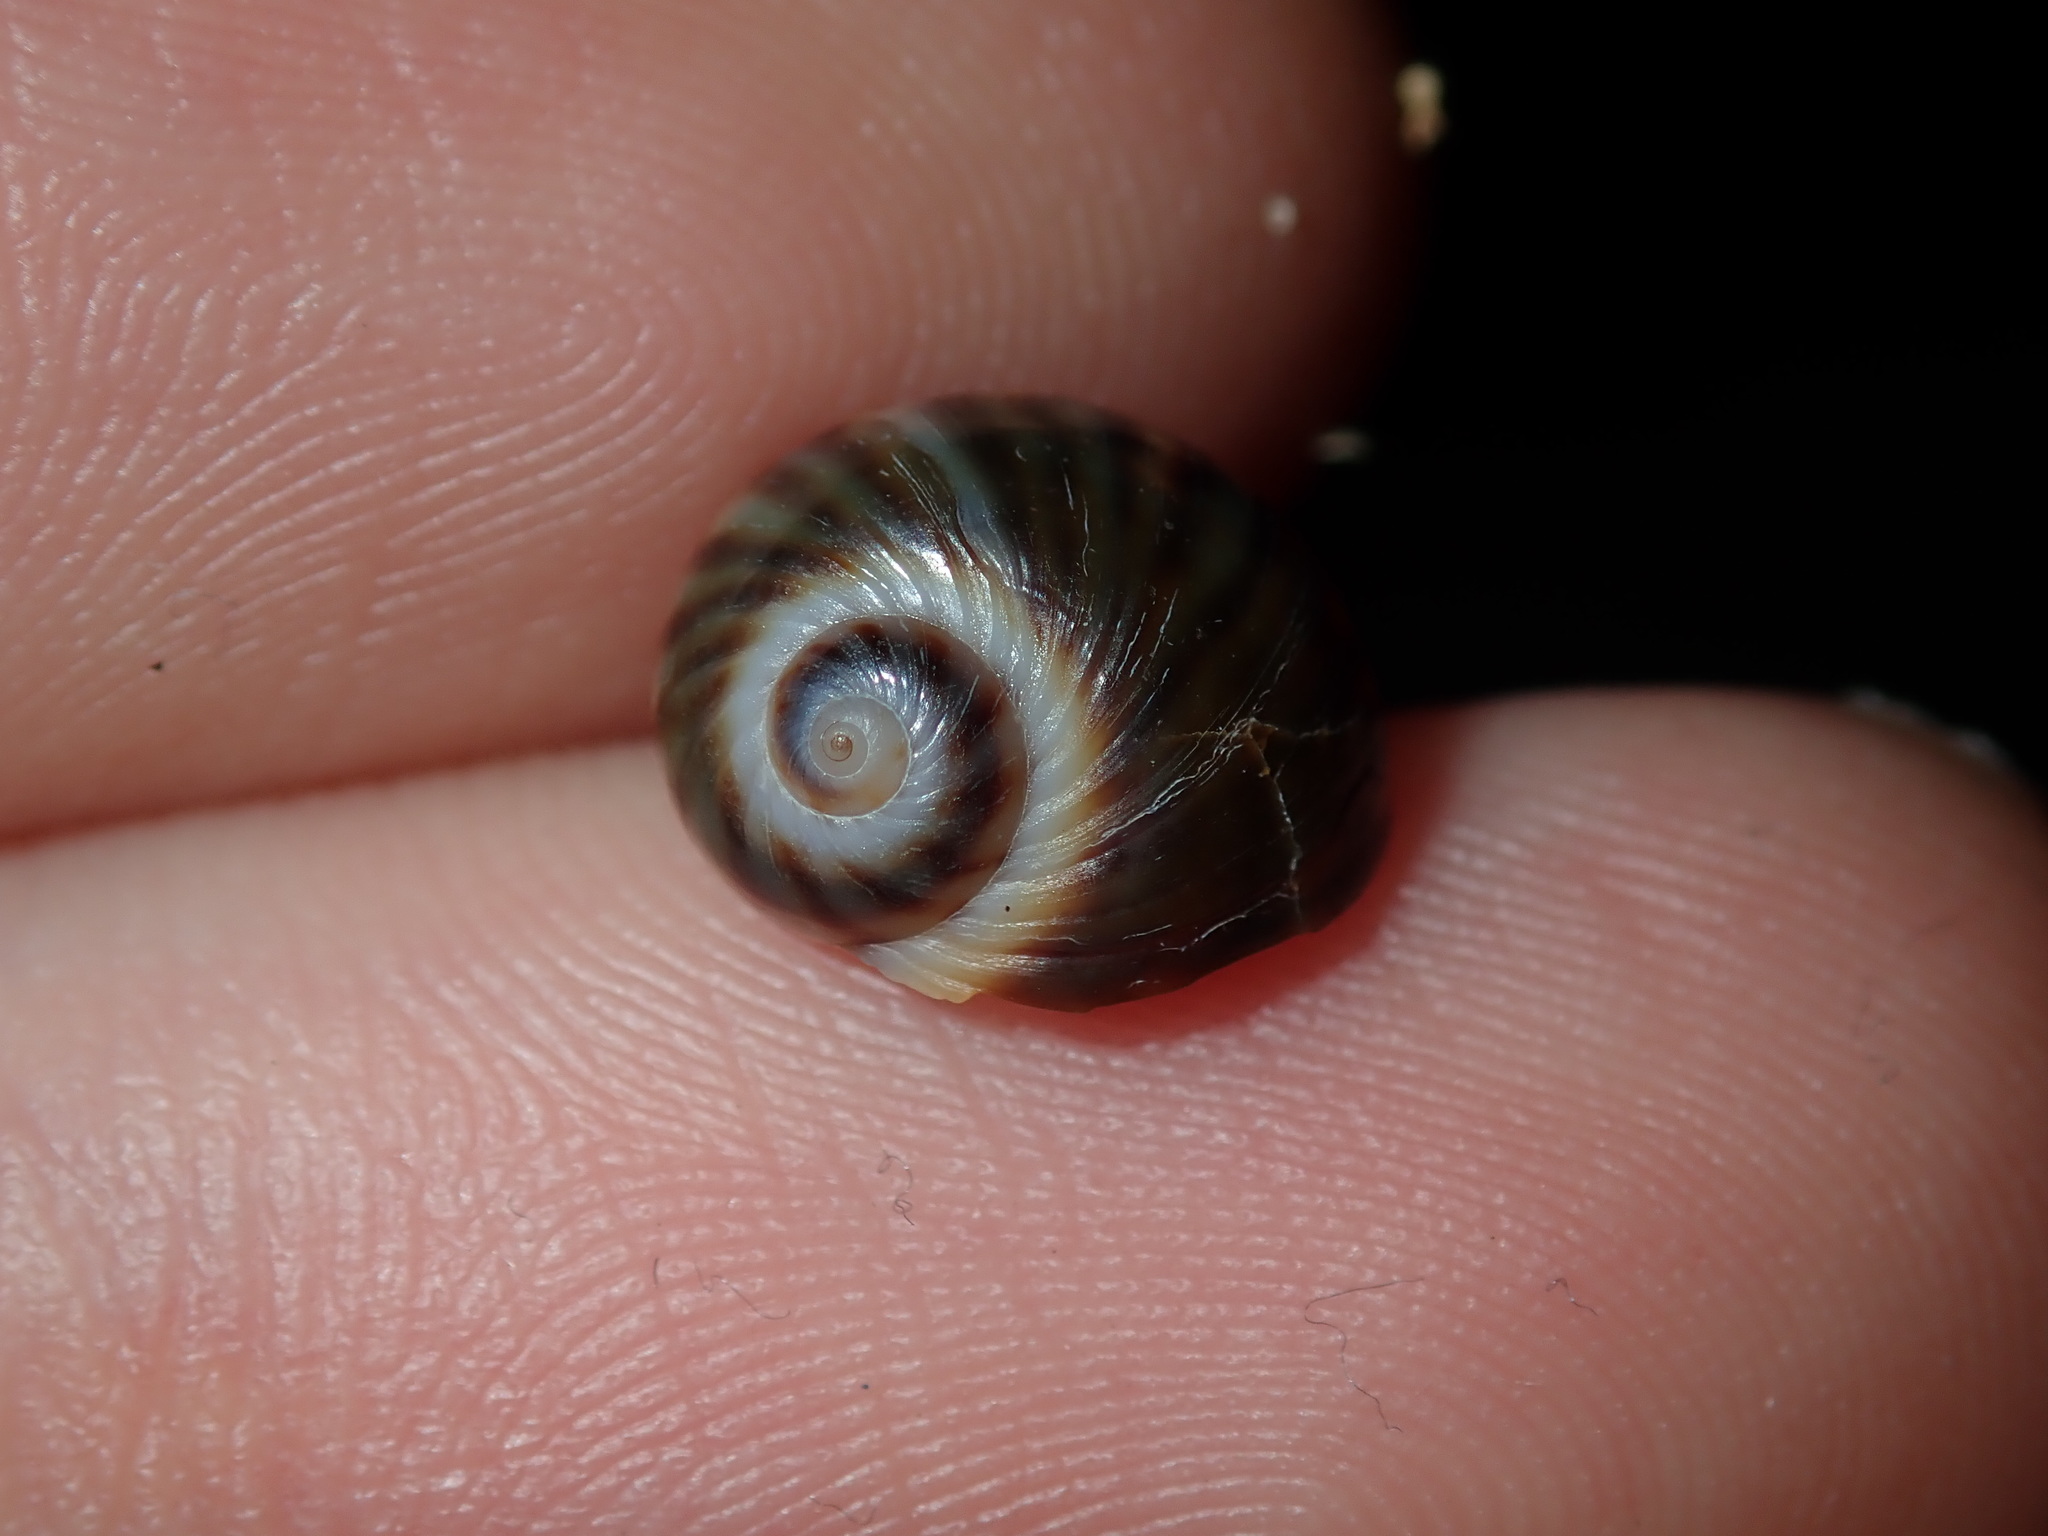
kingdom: Animalia
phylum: Mollusca
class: Gastropoda
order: Littorinimorpha
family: Naticidae
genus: Notocochlis
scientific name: Notocochlis gualteriana
